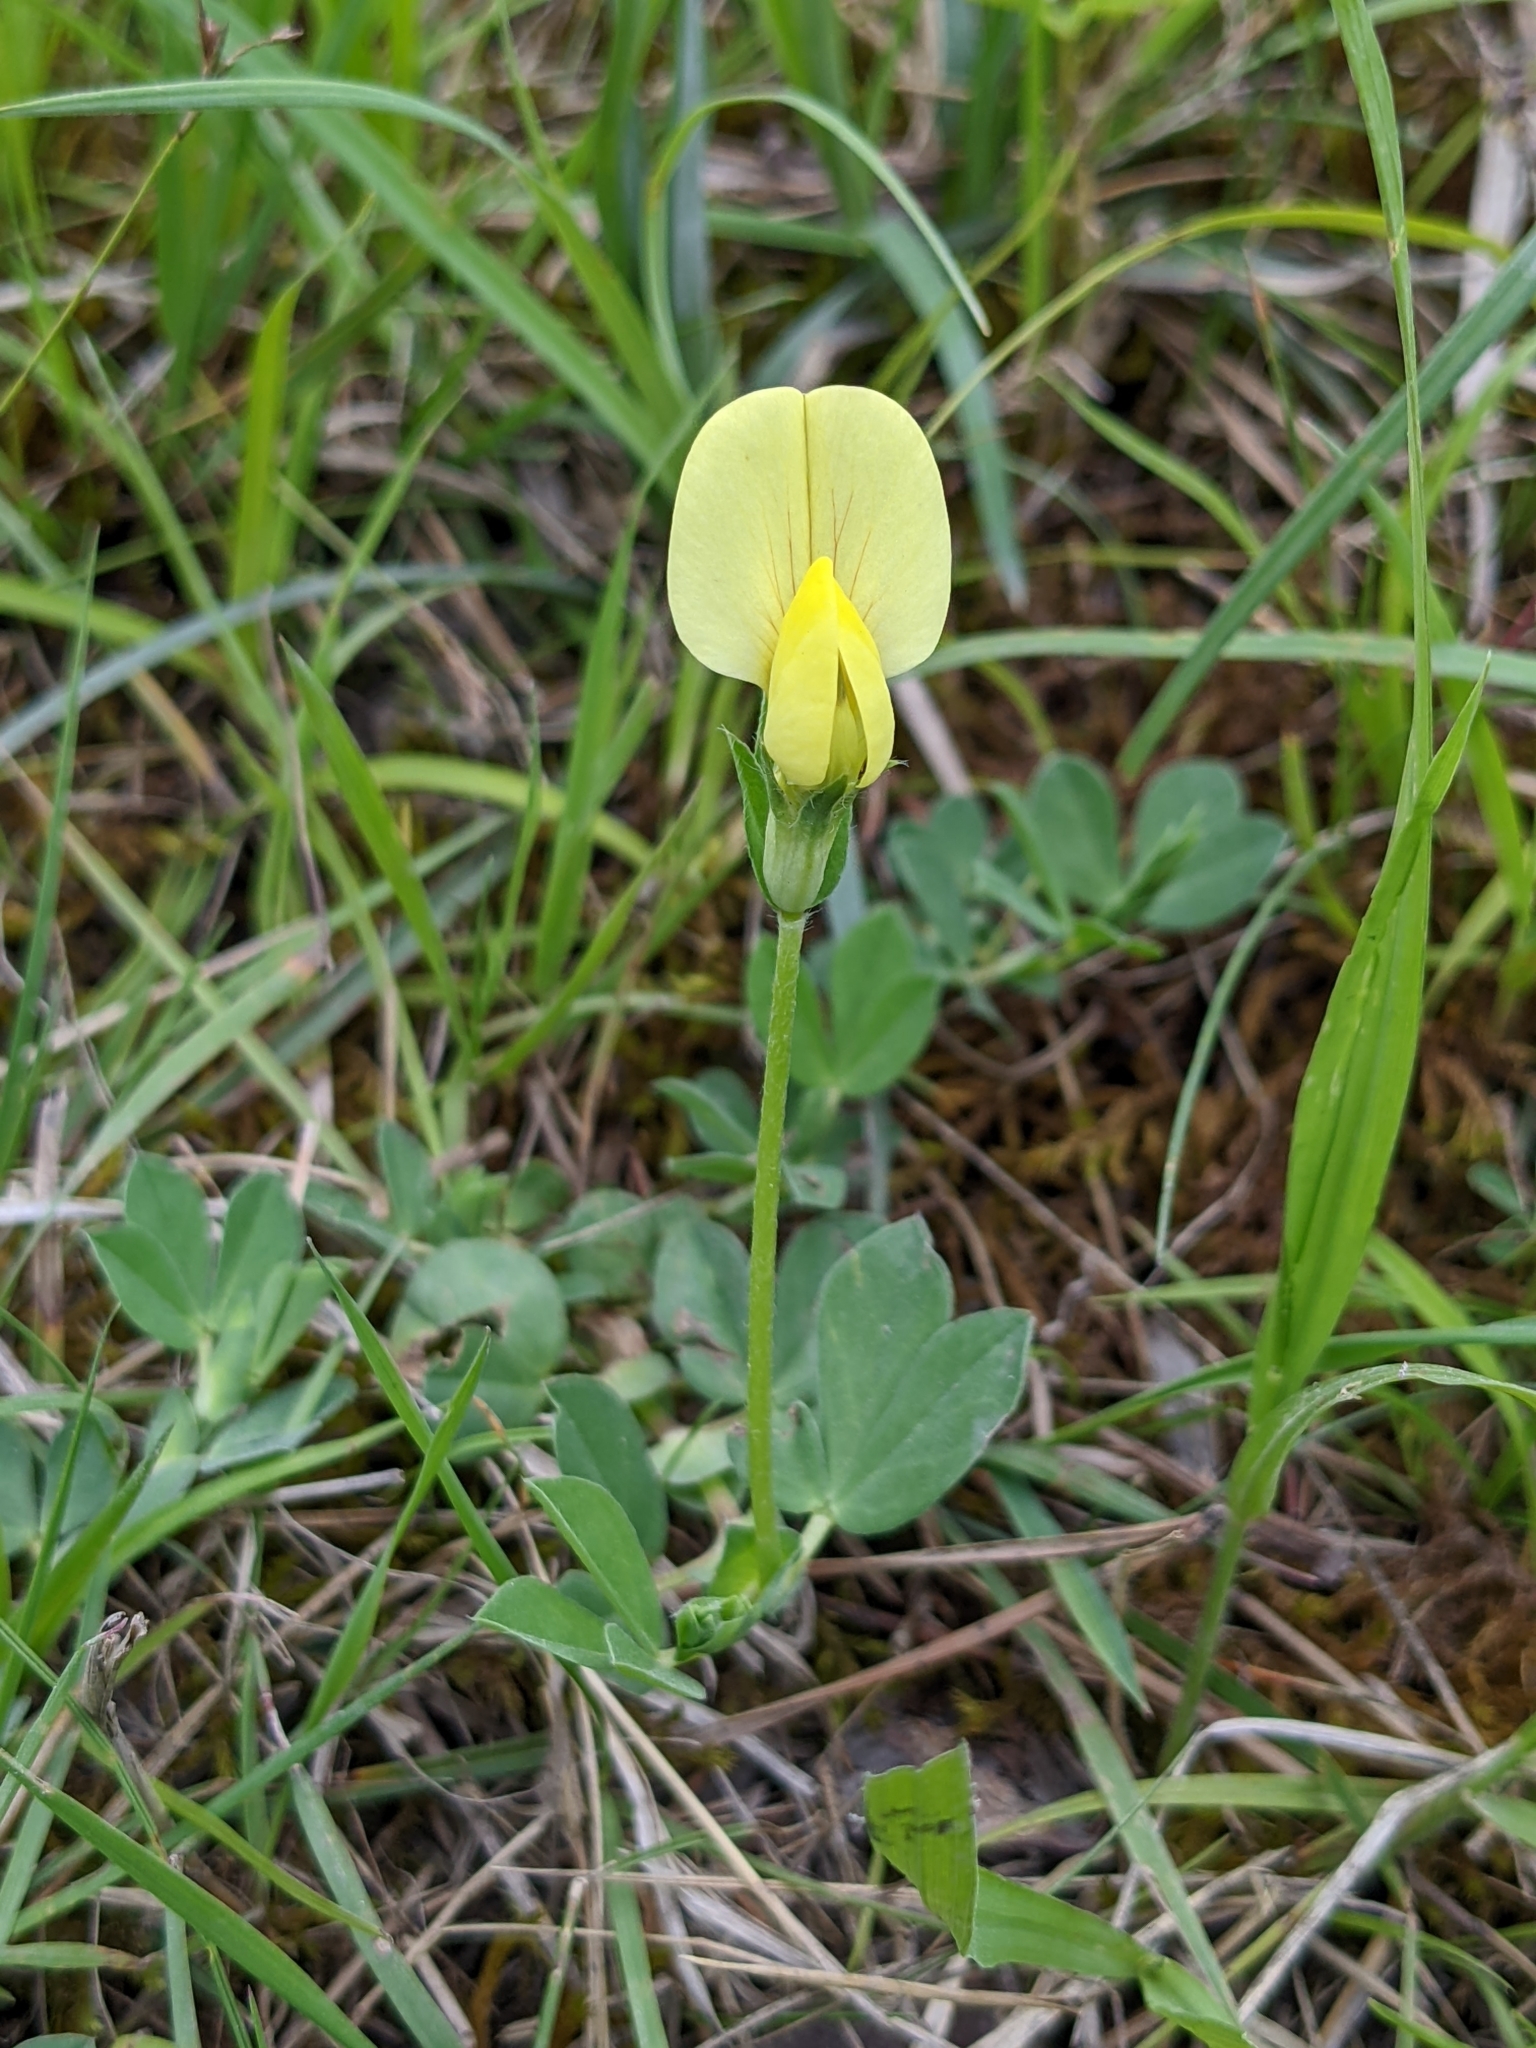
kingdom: Plantae
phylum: Tracheophyta
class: Magnoliopsida
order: Fabales
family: Fabaceae
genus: Lotus
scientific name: Lotus maritimus
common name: Dragon's-teeth
